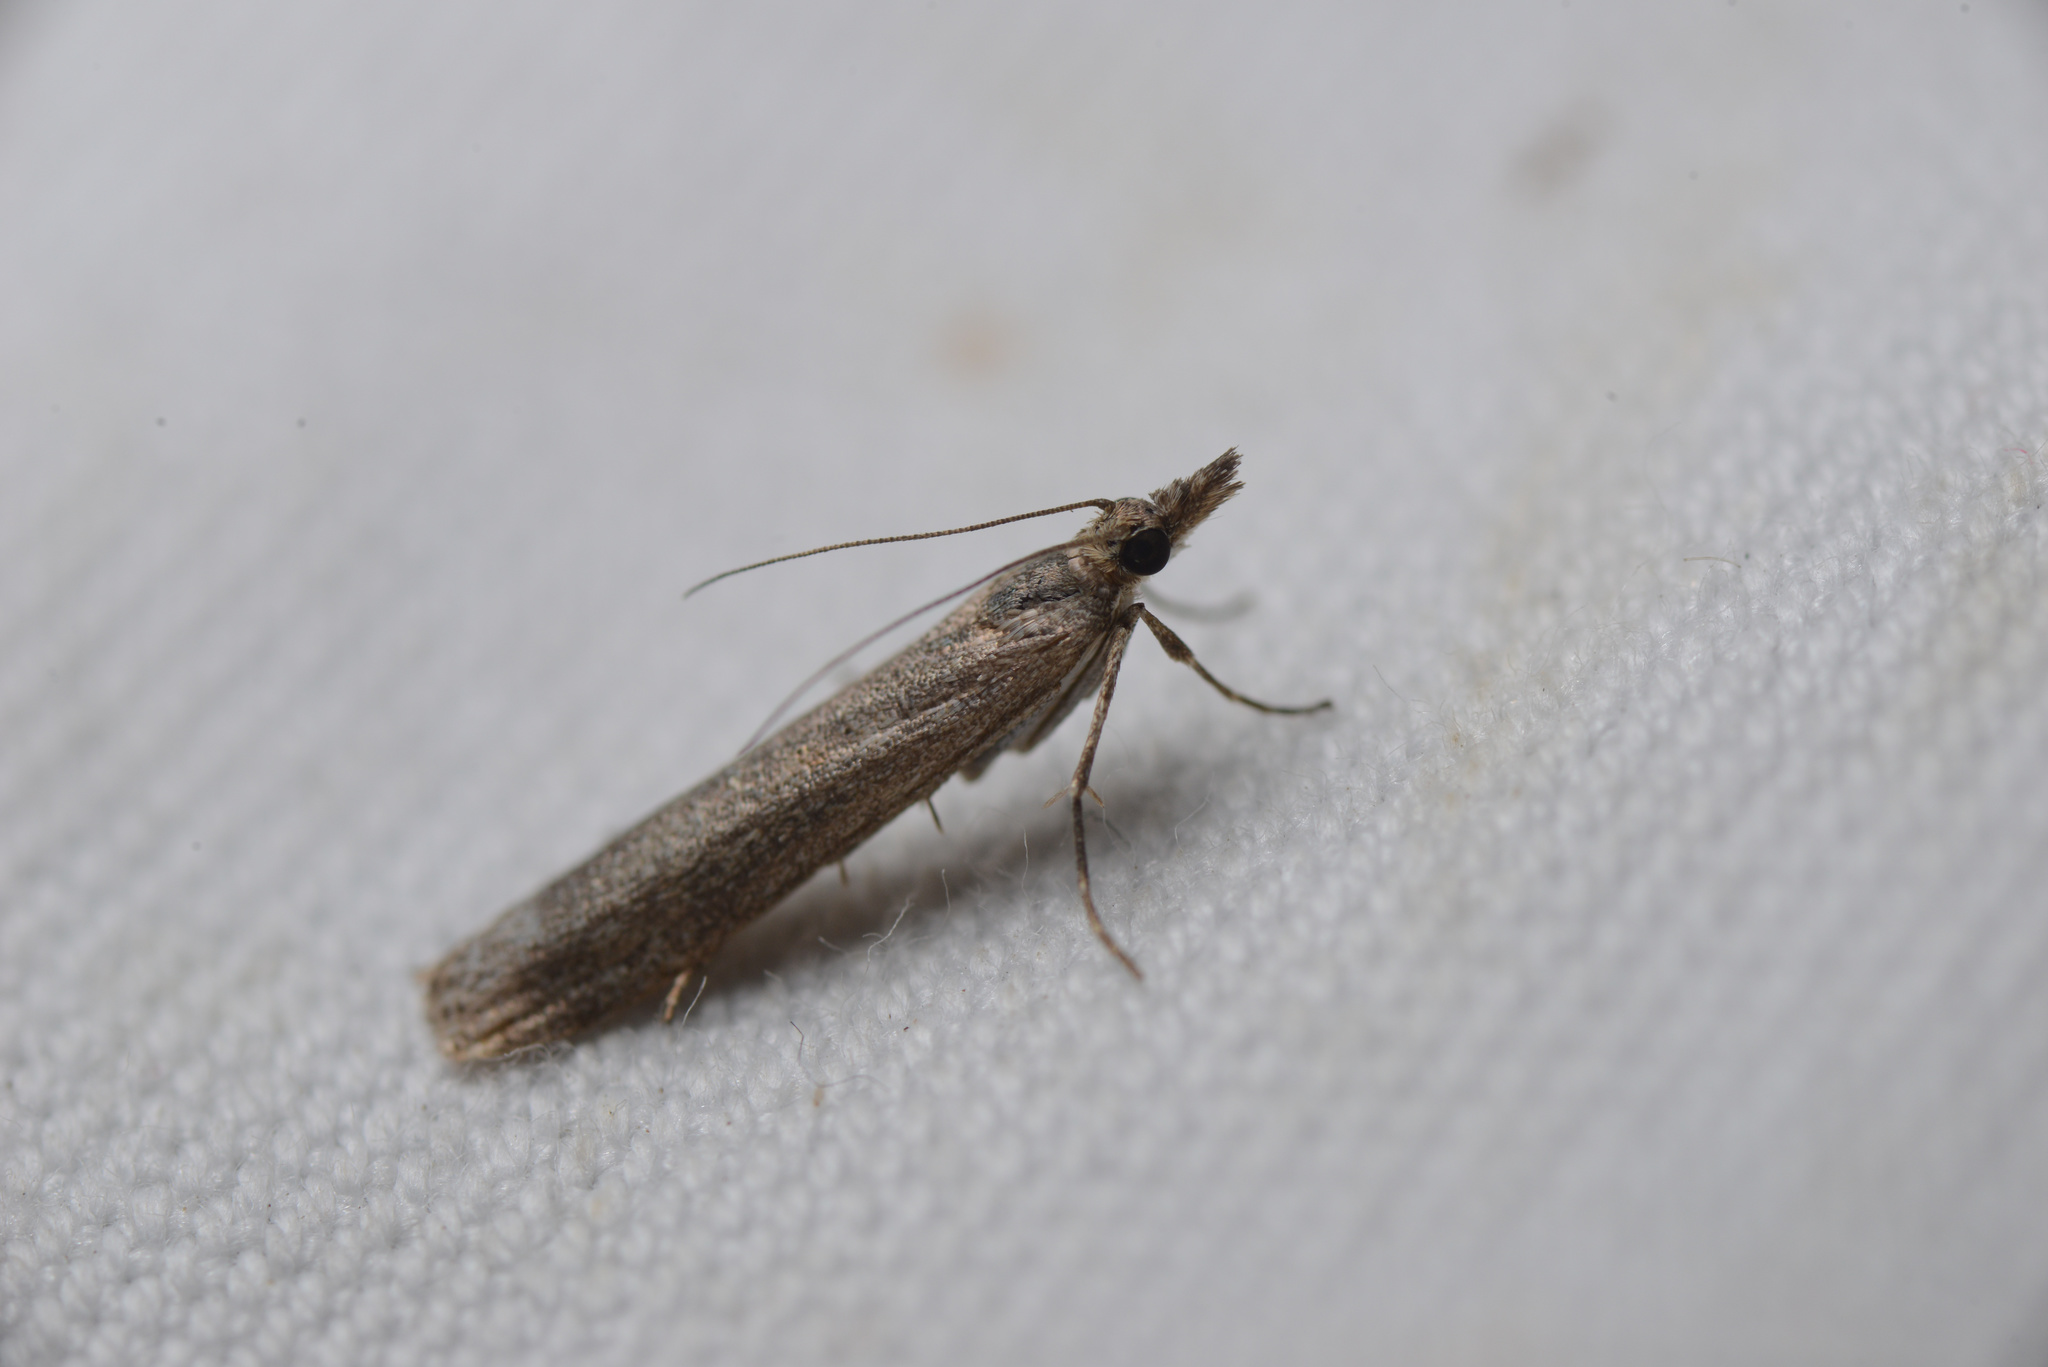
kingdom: Animalia
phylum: Arthropoda
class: Insecta
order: Lepidoptera
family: Crambidae
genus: Eudonia
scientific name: Eudonia leptalea
